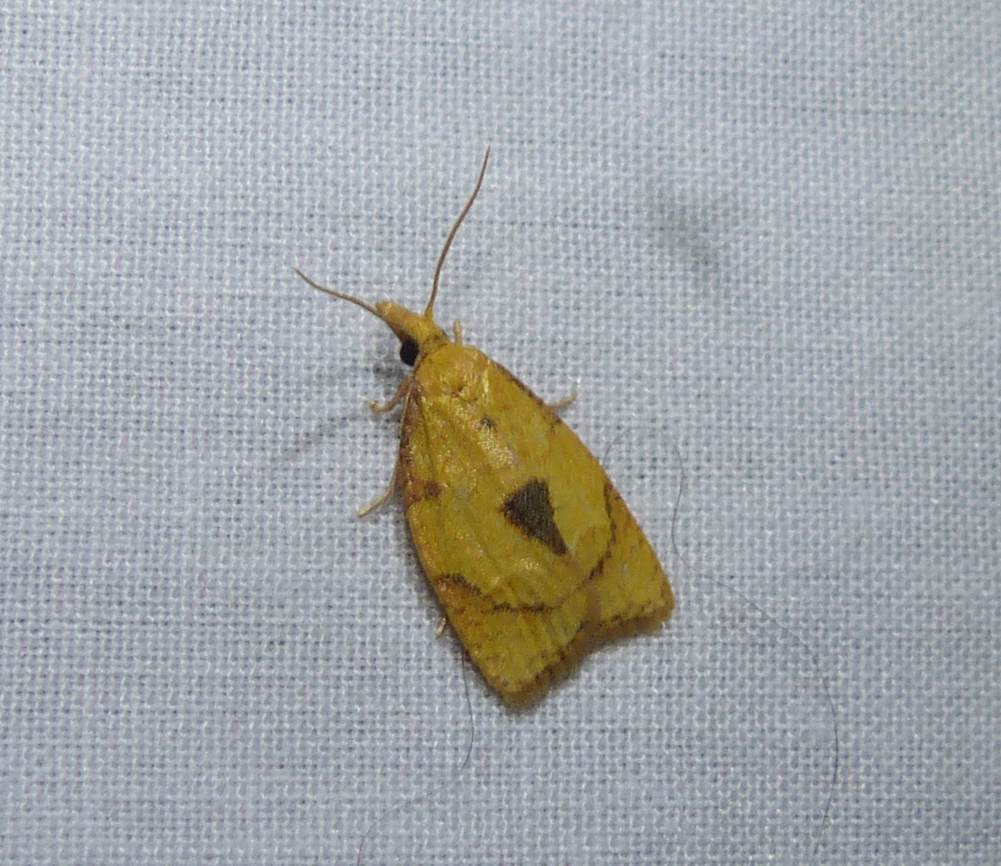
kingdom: Animalia
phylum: Arthropoda
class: Insecta
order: Lepidoptera
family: Tortricidae
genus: Cenopis
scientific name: Cenopis mesospila
